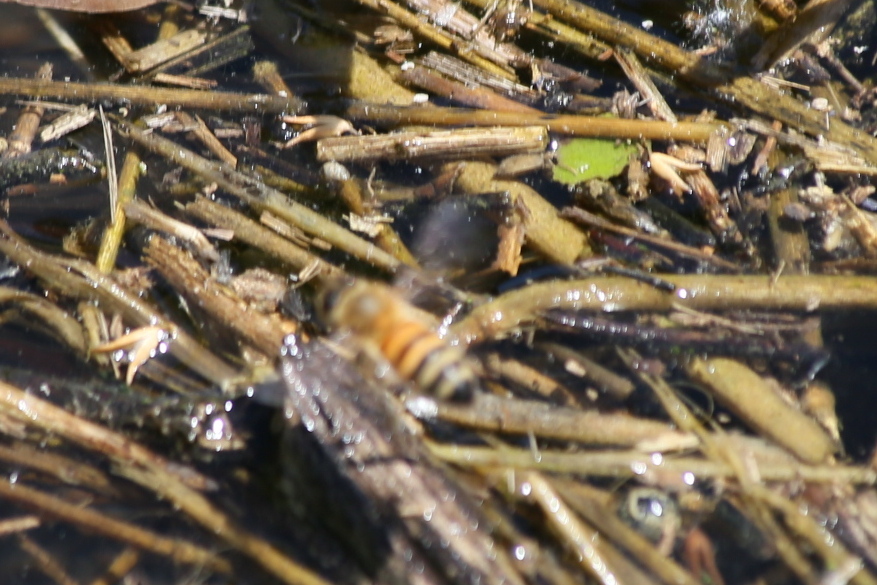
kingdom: Animalia
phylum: Arthropoda
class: Insecta
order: Hymenoptera
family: Apidae
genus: Apis
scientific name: Apis mellifera
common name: Honey bee
